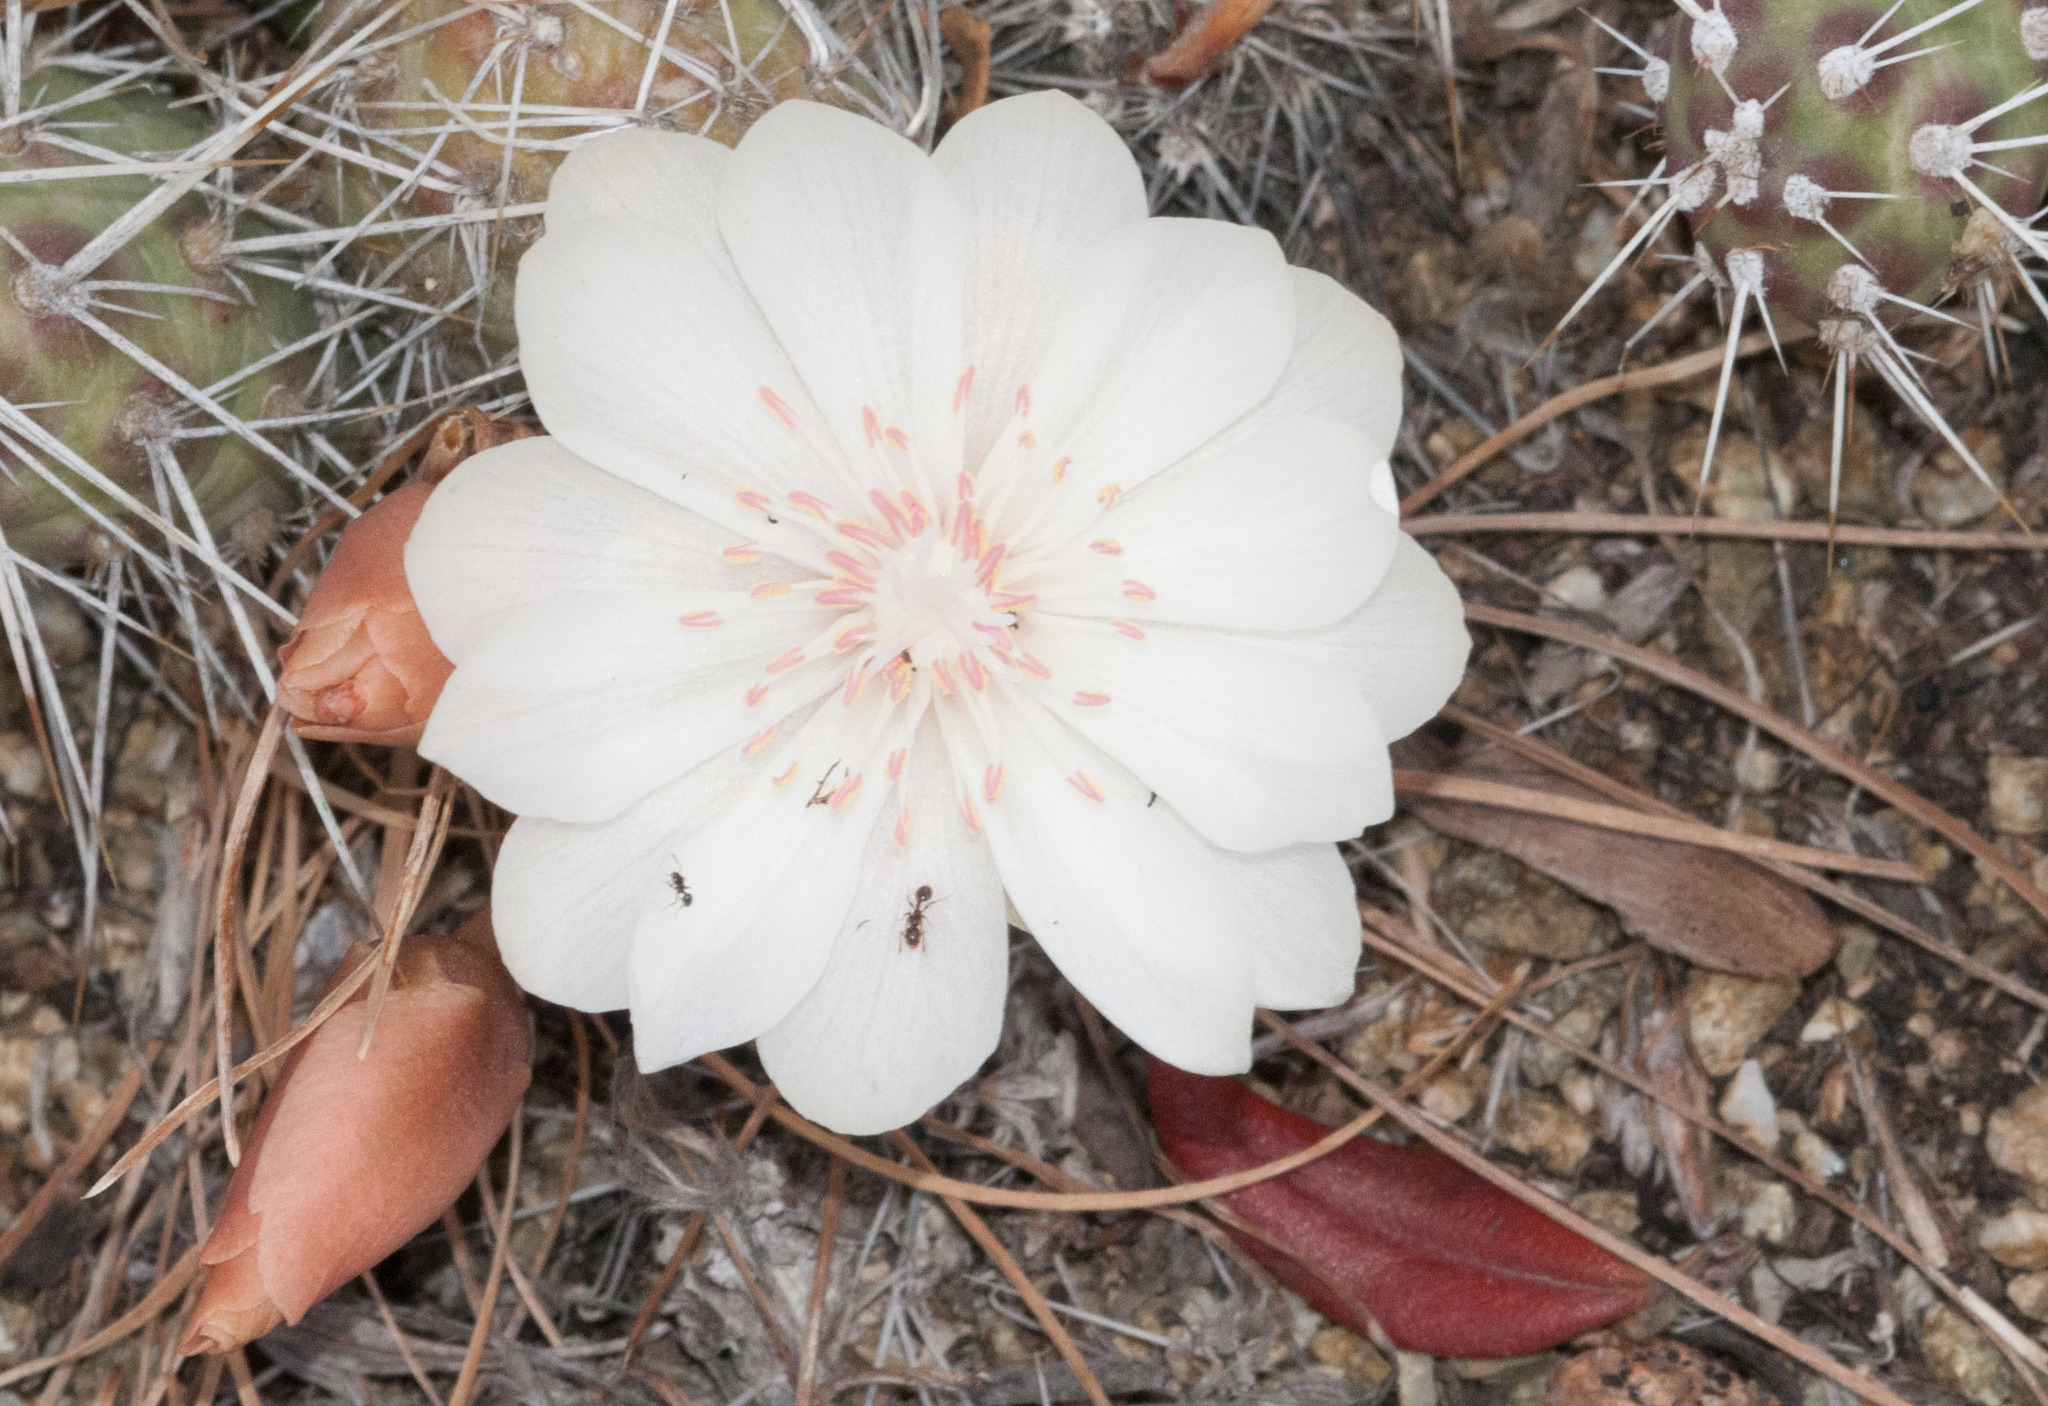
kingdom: Plantae
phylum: Tracheophyta
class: Magnoliopsida
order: Caryophyllales
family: Montiaceae
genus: Lewisia
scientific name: Lewisia rediviva
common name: Bitter-root
